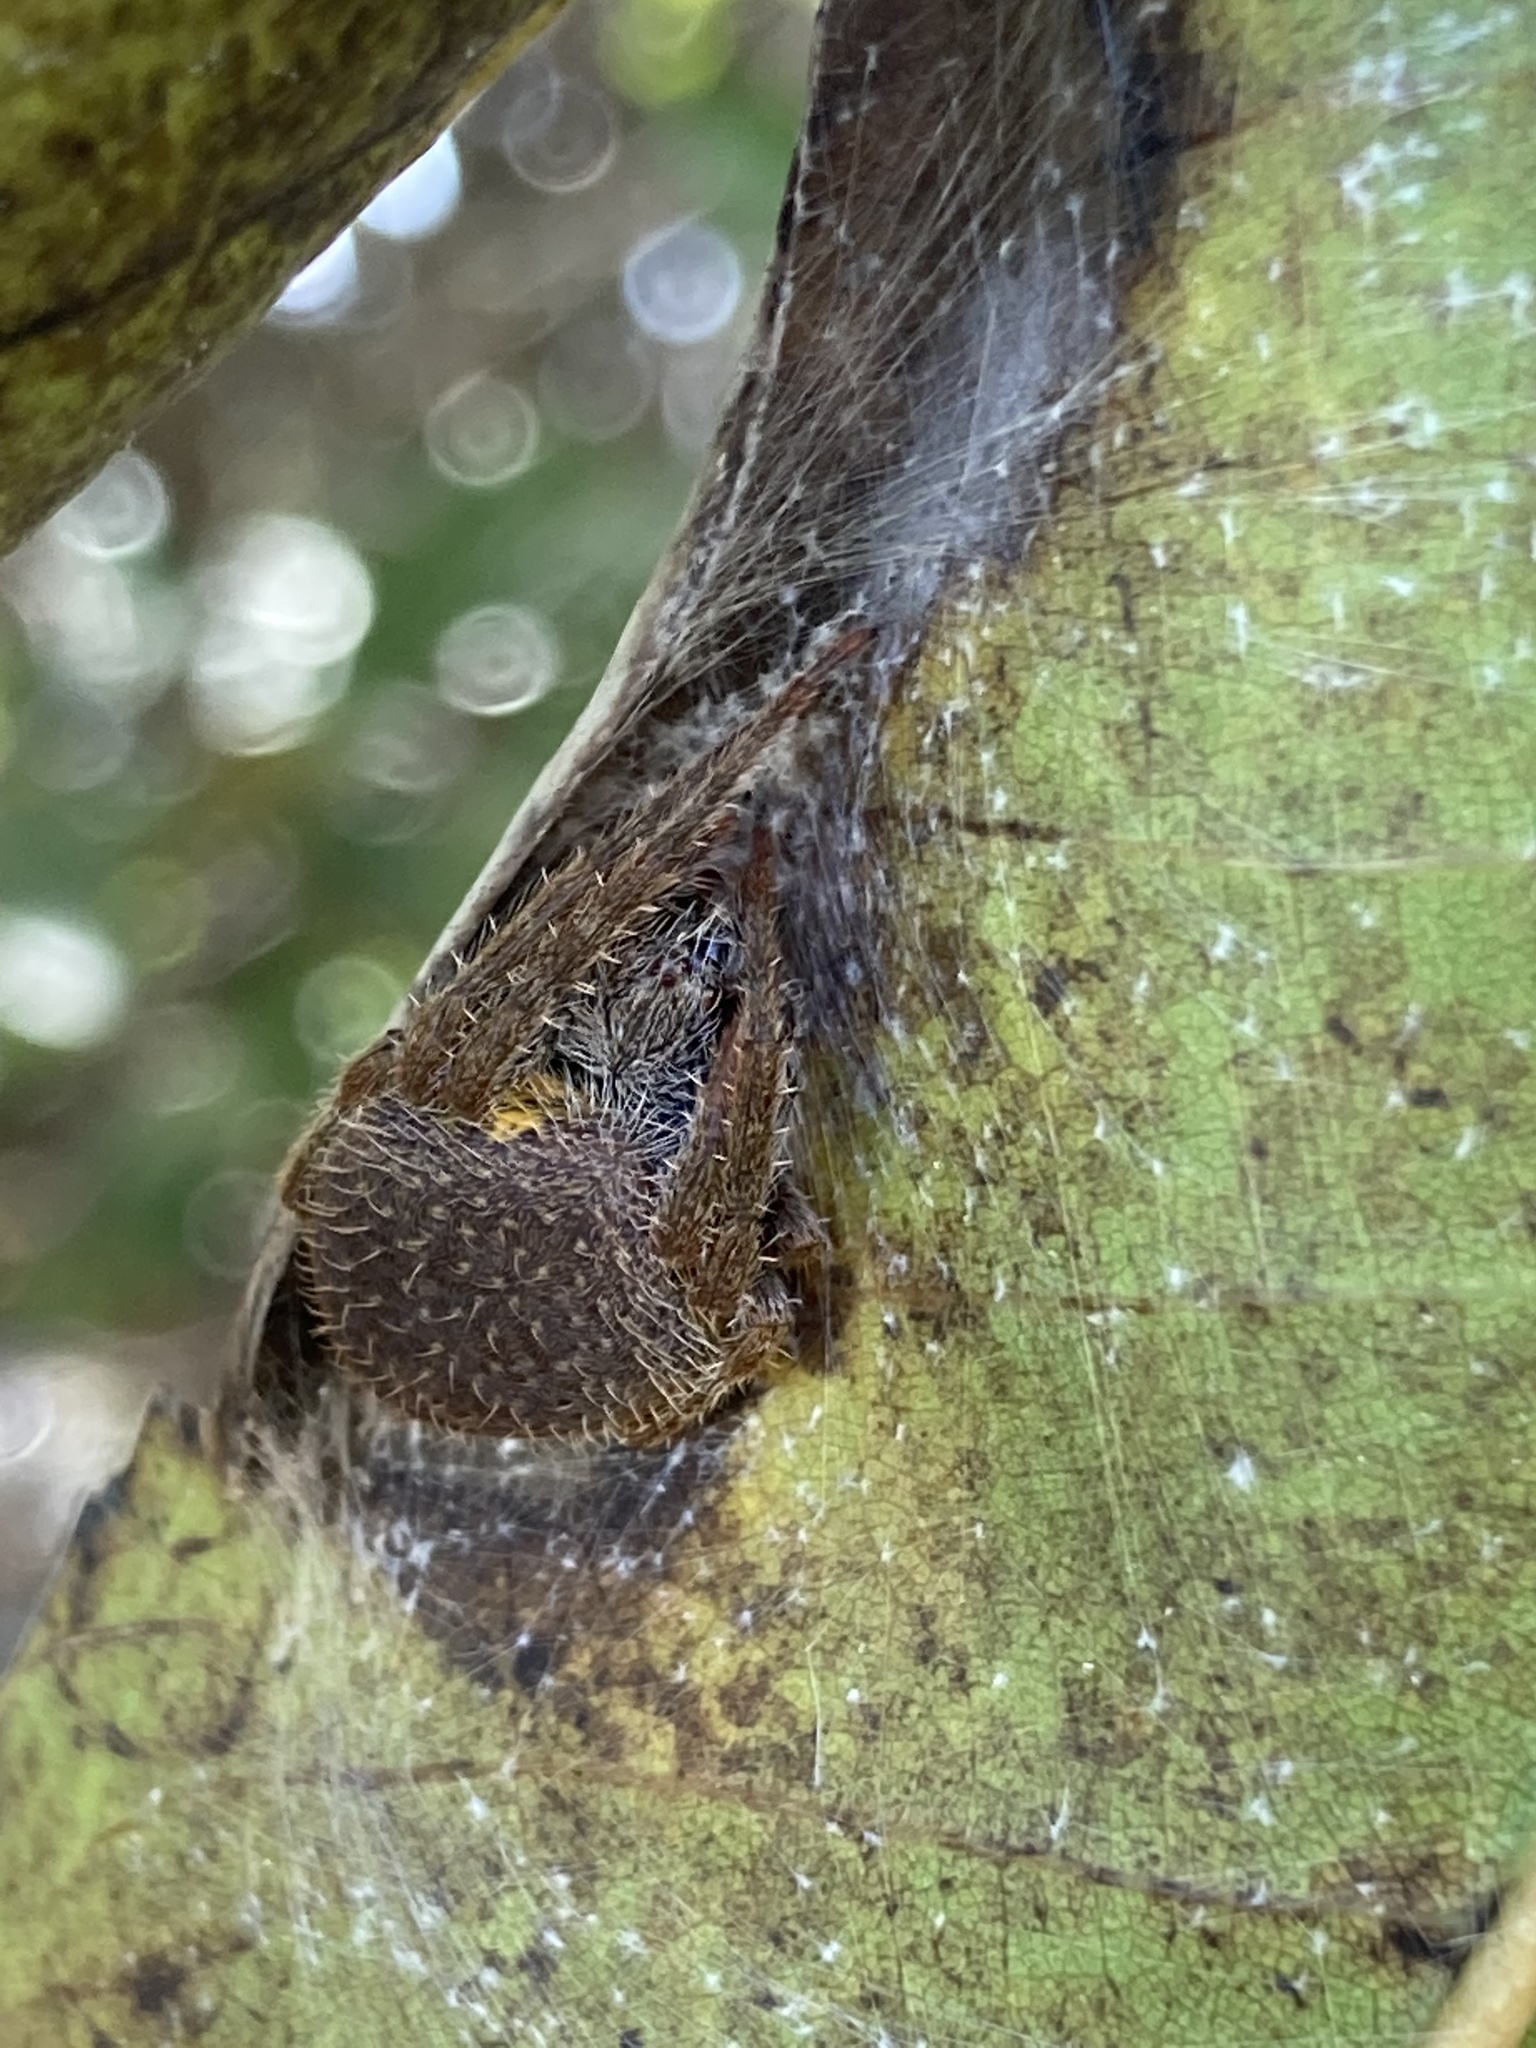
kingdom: Animalia
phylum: Arthropoda
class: Arachnida
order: Araneae
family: Araneidae
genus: Eriophora
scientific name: Eriophora ravilla
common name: Orb weavers
